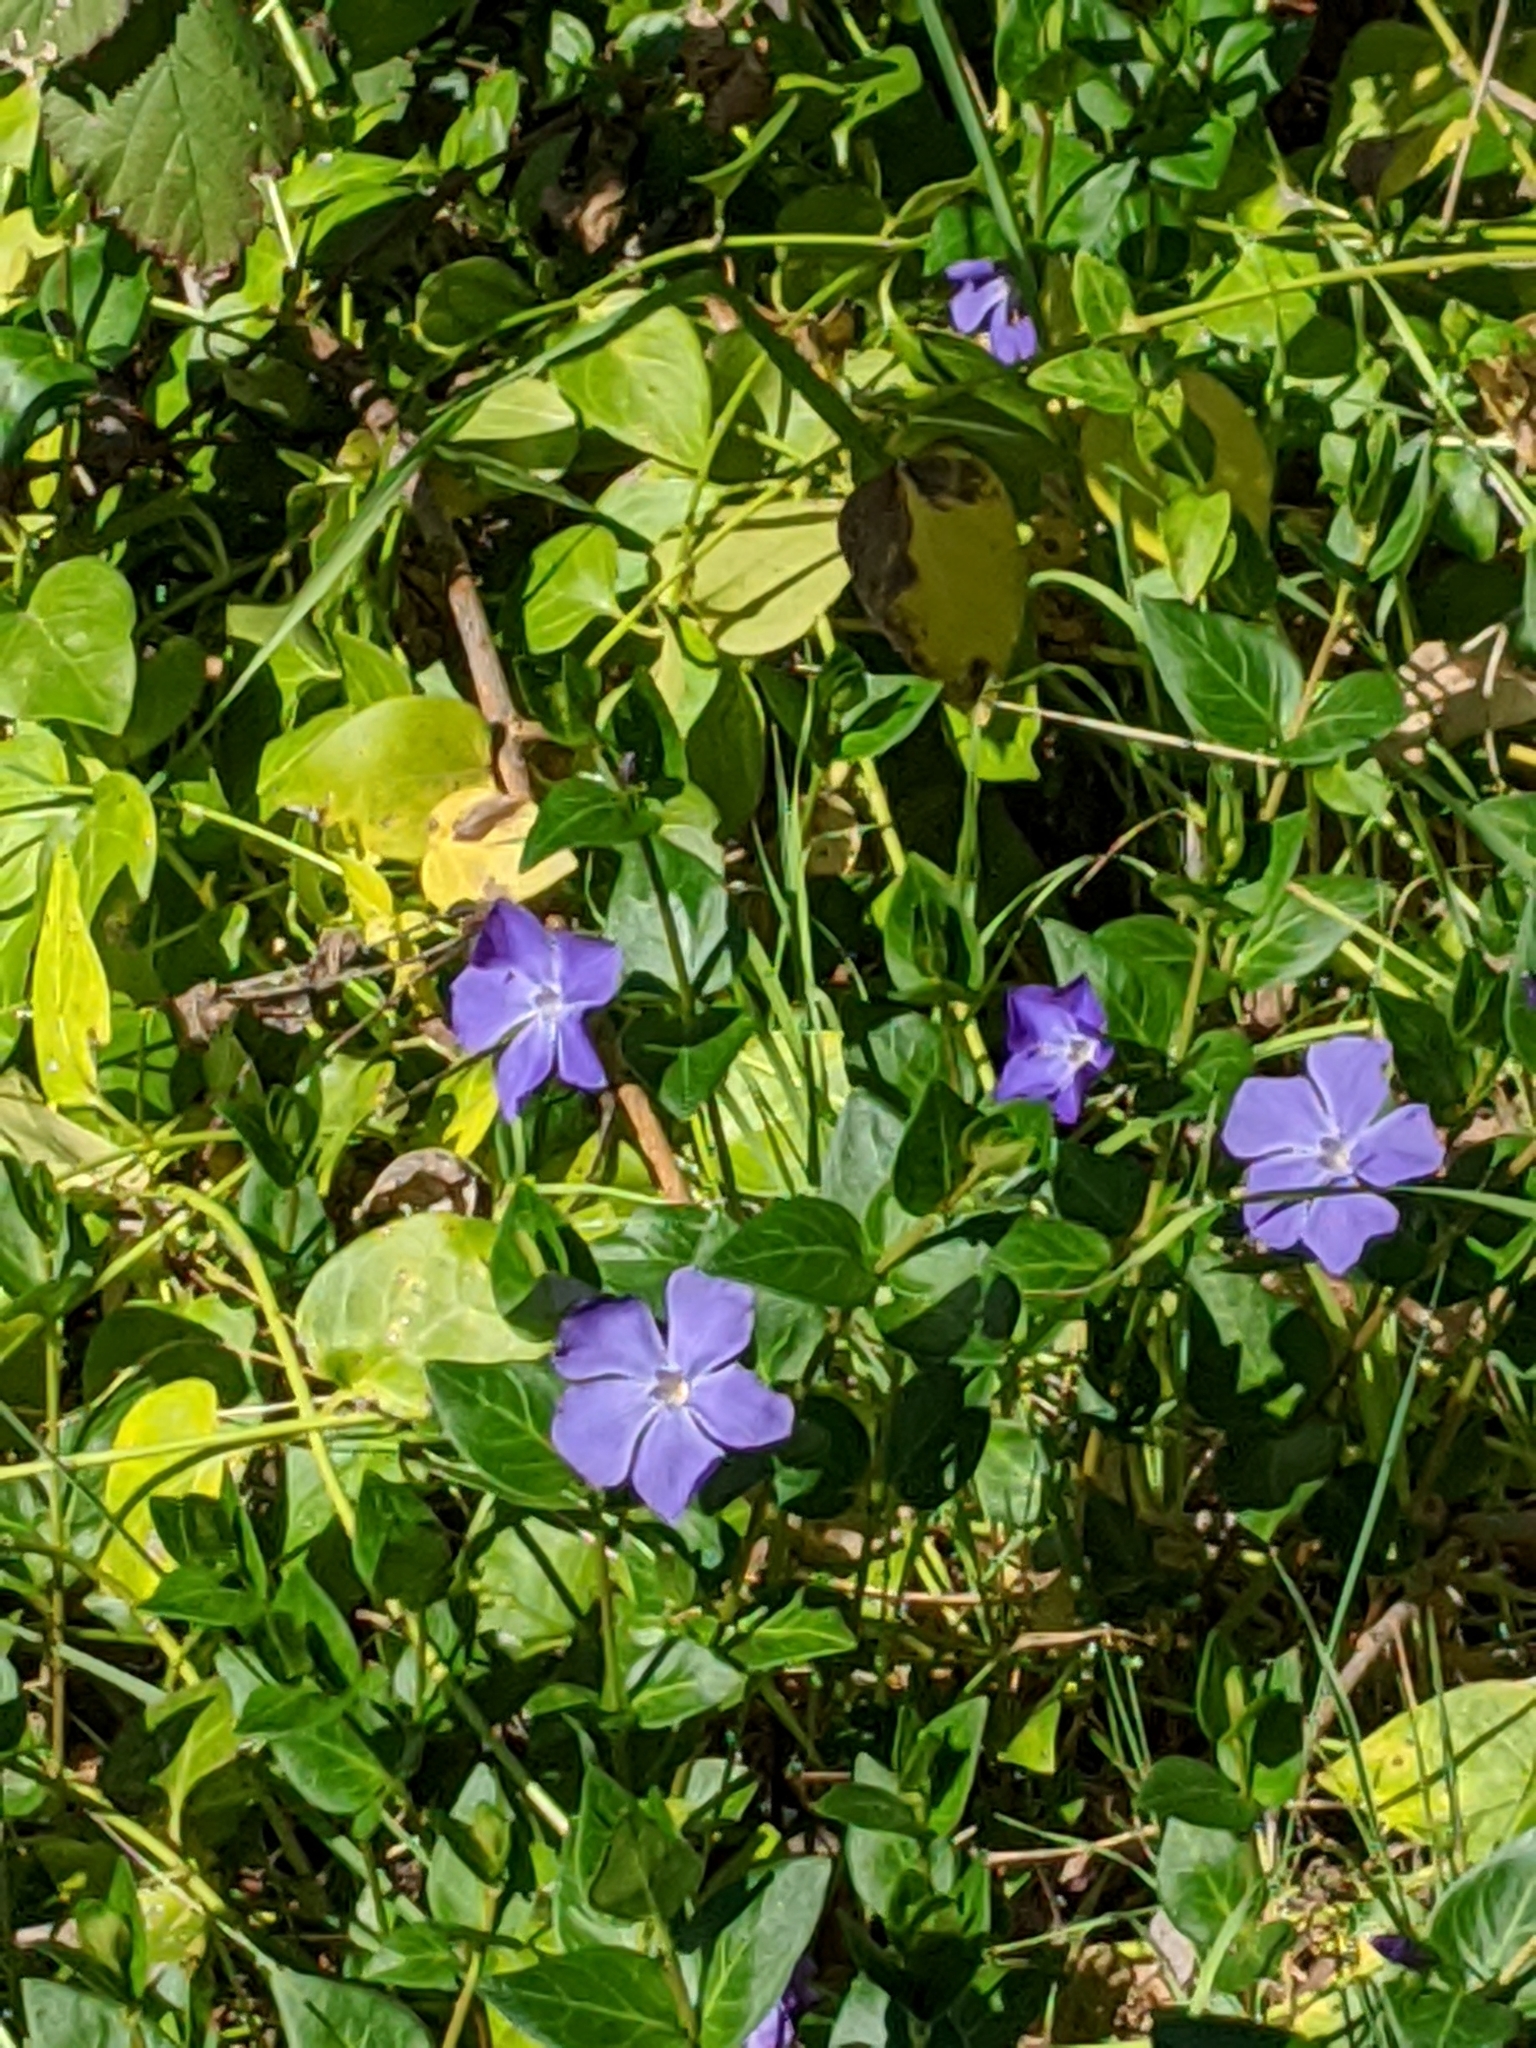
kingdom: Plantae
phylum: Tracheophyta
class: Magnoliopsida
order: Gentianales
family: Apocynaceae
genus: Vinca
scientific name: Vinca major
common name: Greater periwinkle
